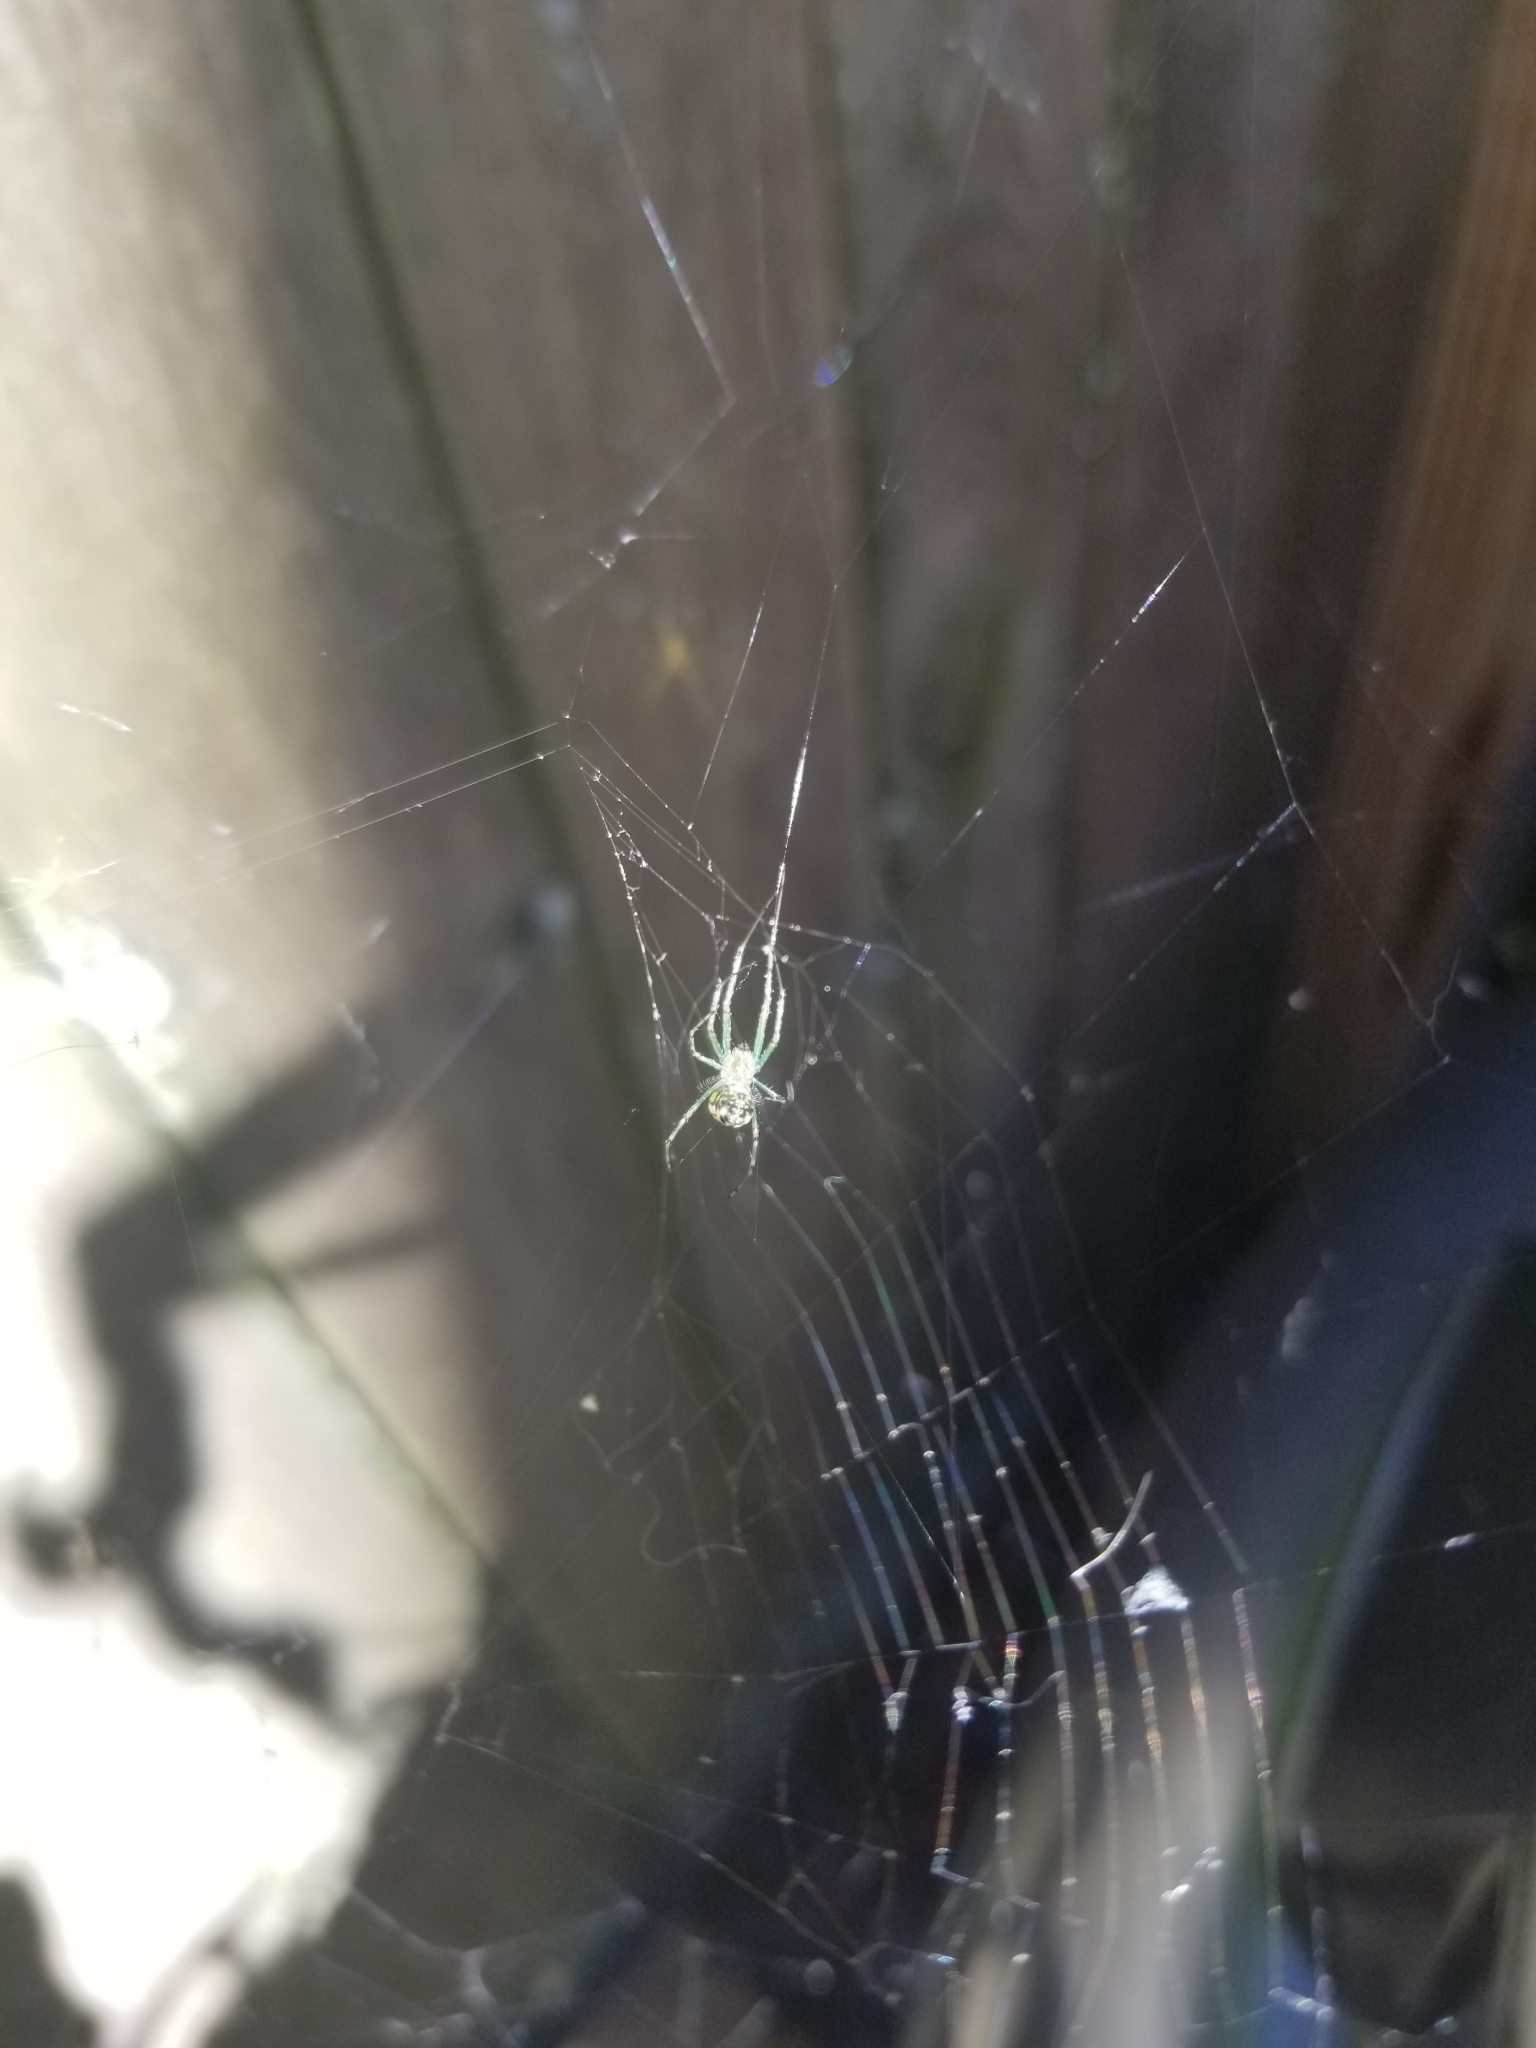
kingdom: Animalia
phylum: Arthropoda
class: Arachnida
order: Araneae
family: Tetragnathidae
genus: Leucauge
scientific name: Leucauge venusta
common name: Longjawed orb weavers
